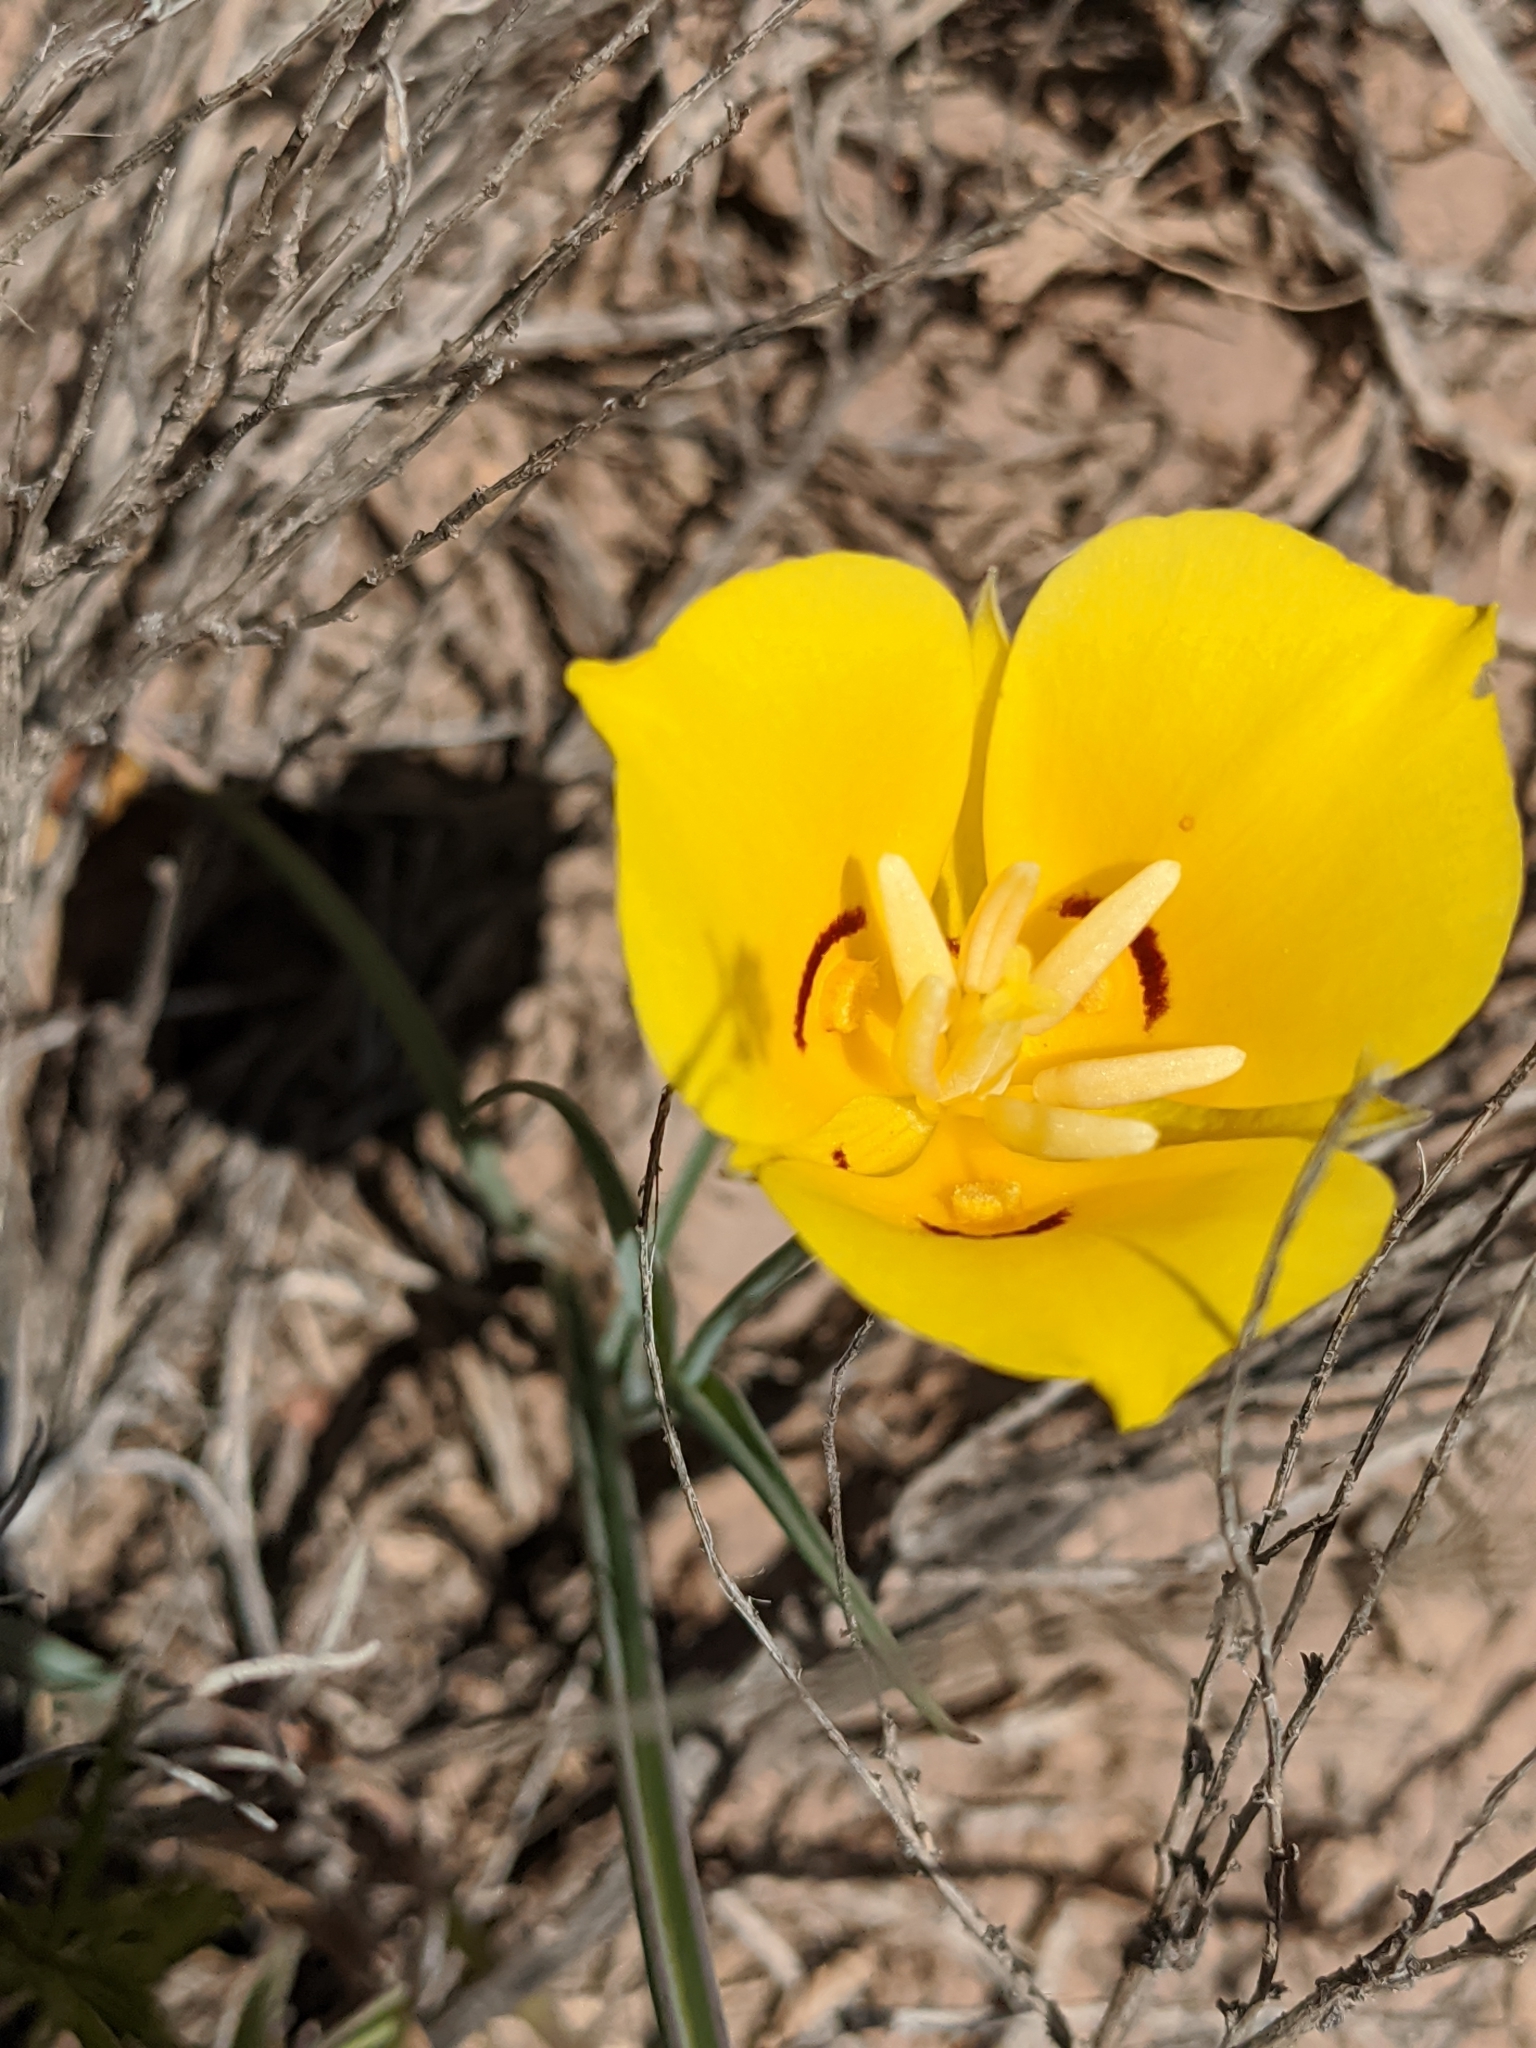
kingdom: Plantae
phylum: Tracheophyta
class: Liliopsida
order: Liliales
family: Liliaceae
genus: Calochortus
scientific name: Calochortus aureus
